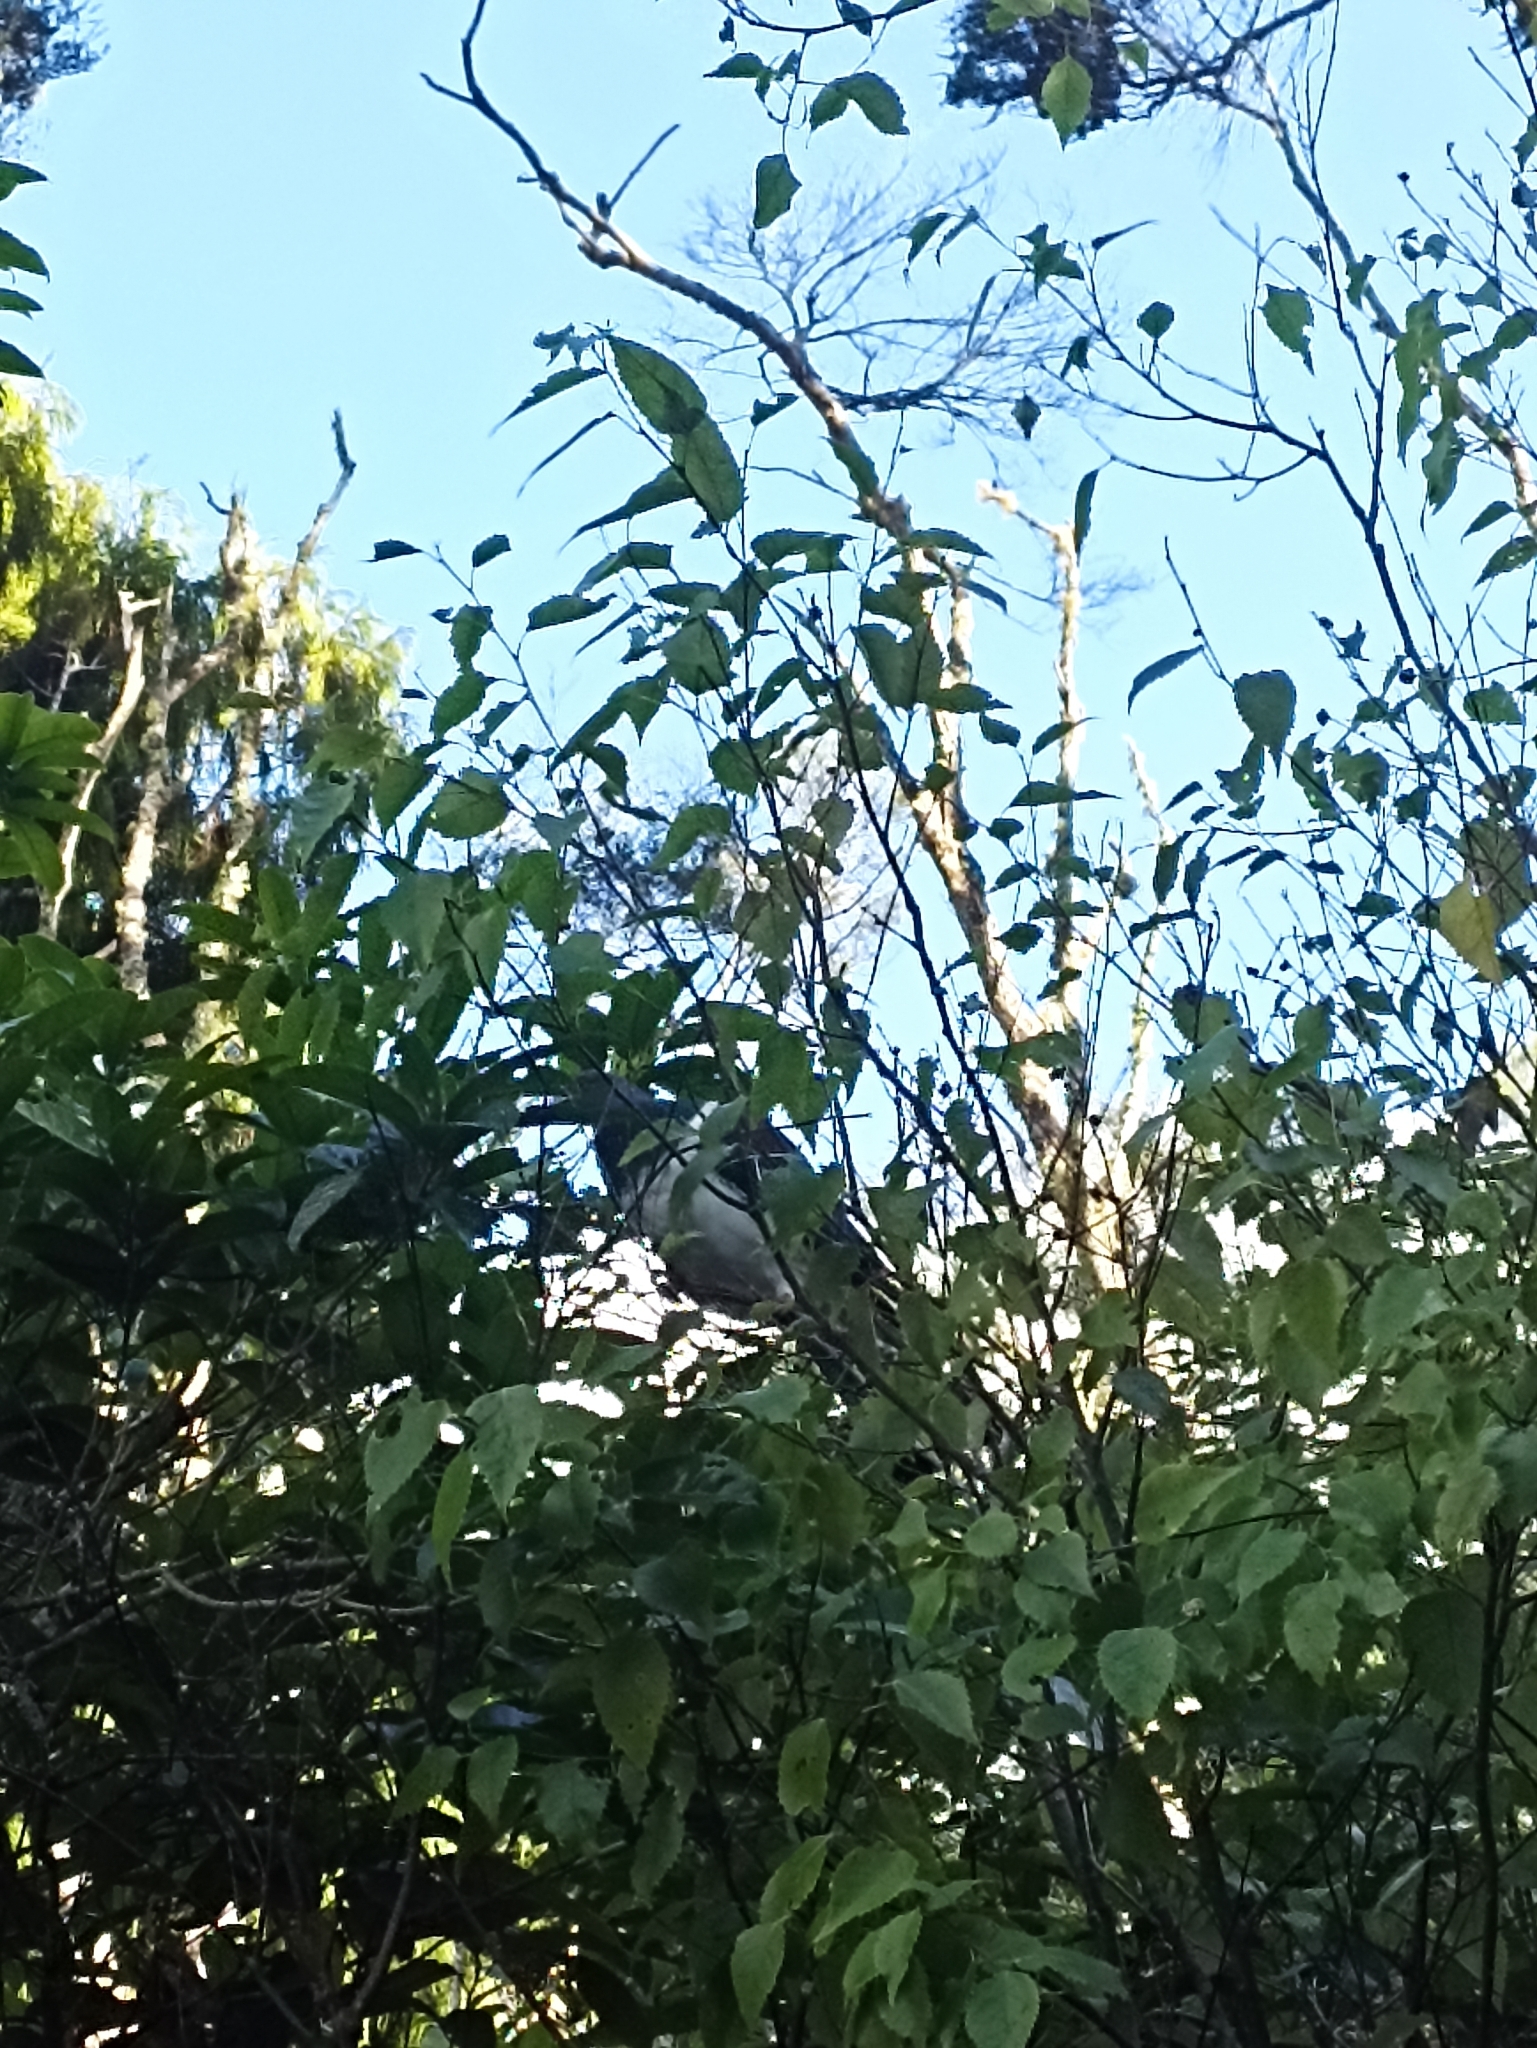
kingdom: Animalia
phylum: Chordata
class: Aves
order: Columbiformes
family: Columbidae
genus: Hemiphaga
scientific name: Hemiphaga novaeseelandiae
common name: New zealand pigeon
